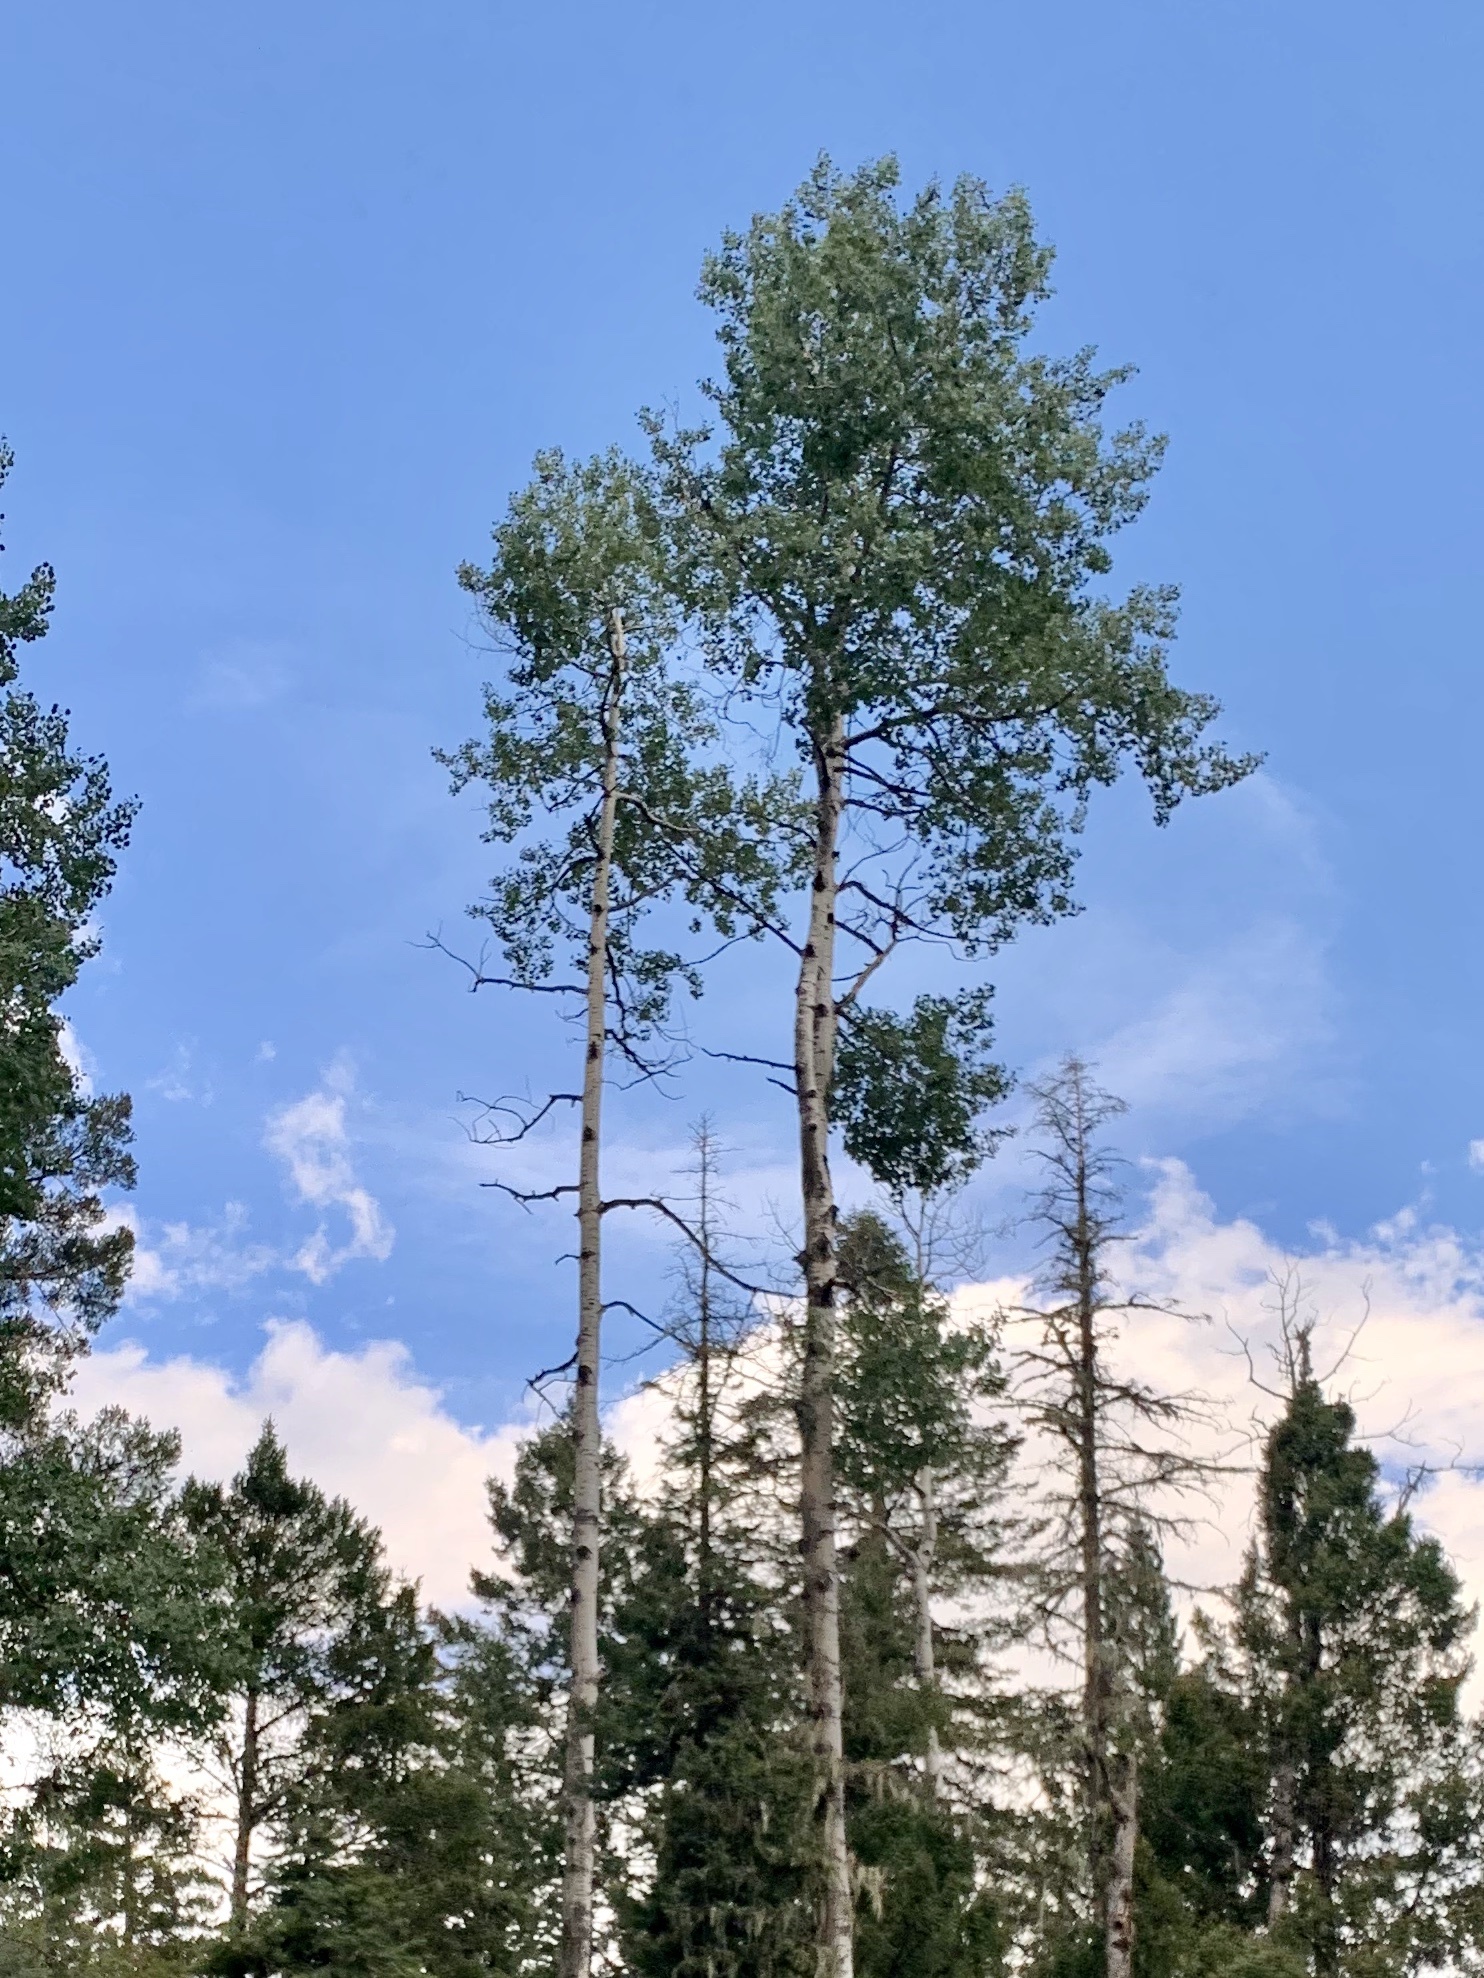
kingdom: Plantae
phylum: Tracheophyta
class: Magnoliopsida
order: Malpighiales
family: Salicaceae
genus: Populus
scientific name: Populus tremuloides
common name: Quaking aspen
